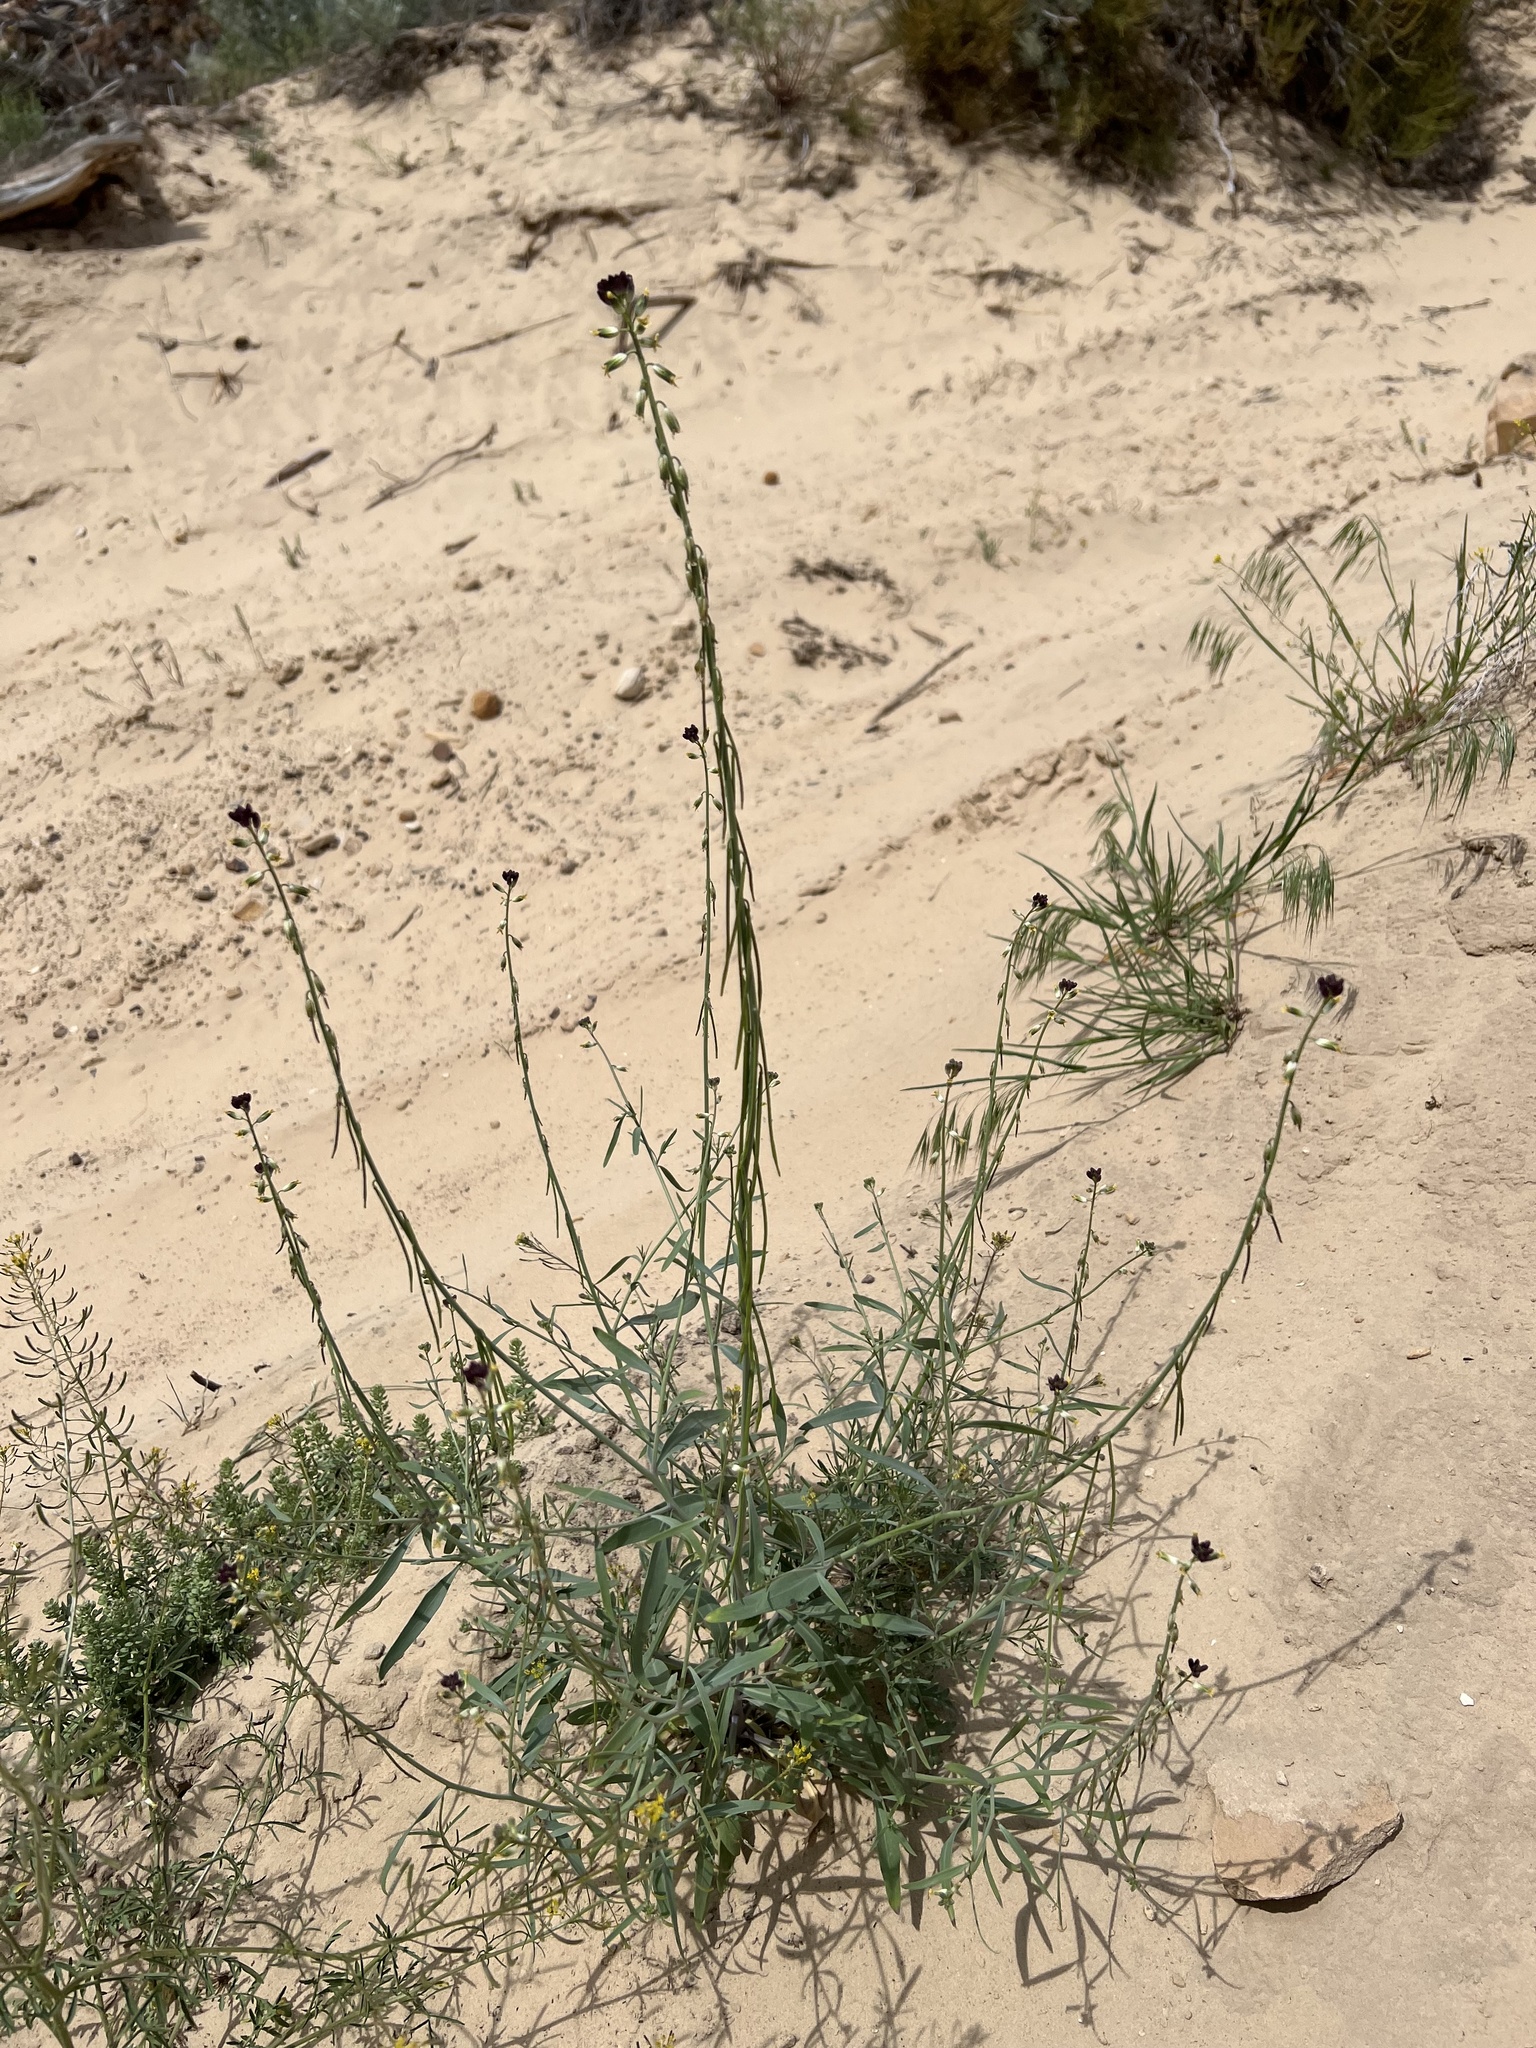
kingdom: Plantae
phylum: Tracheophyta
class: Magnoliopsida
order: Brassicales
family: Brassicaceae
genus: Streptanthus
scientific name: Streptanthus longirostris
